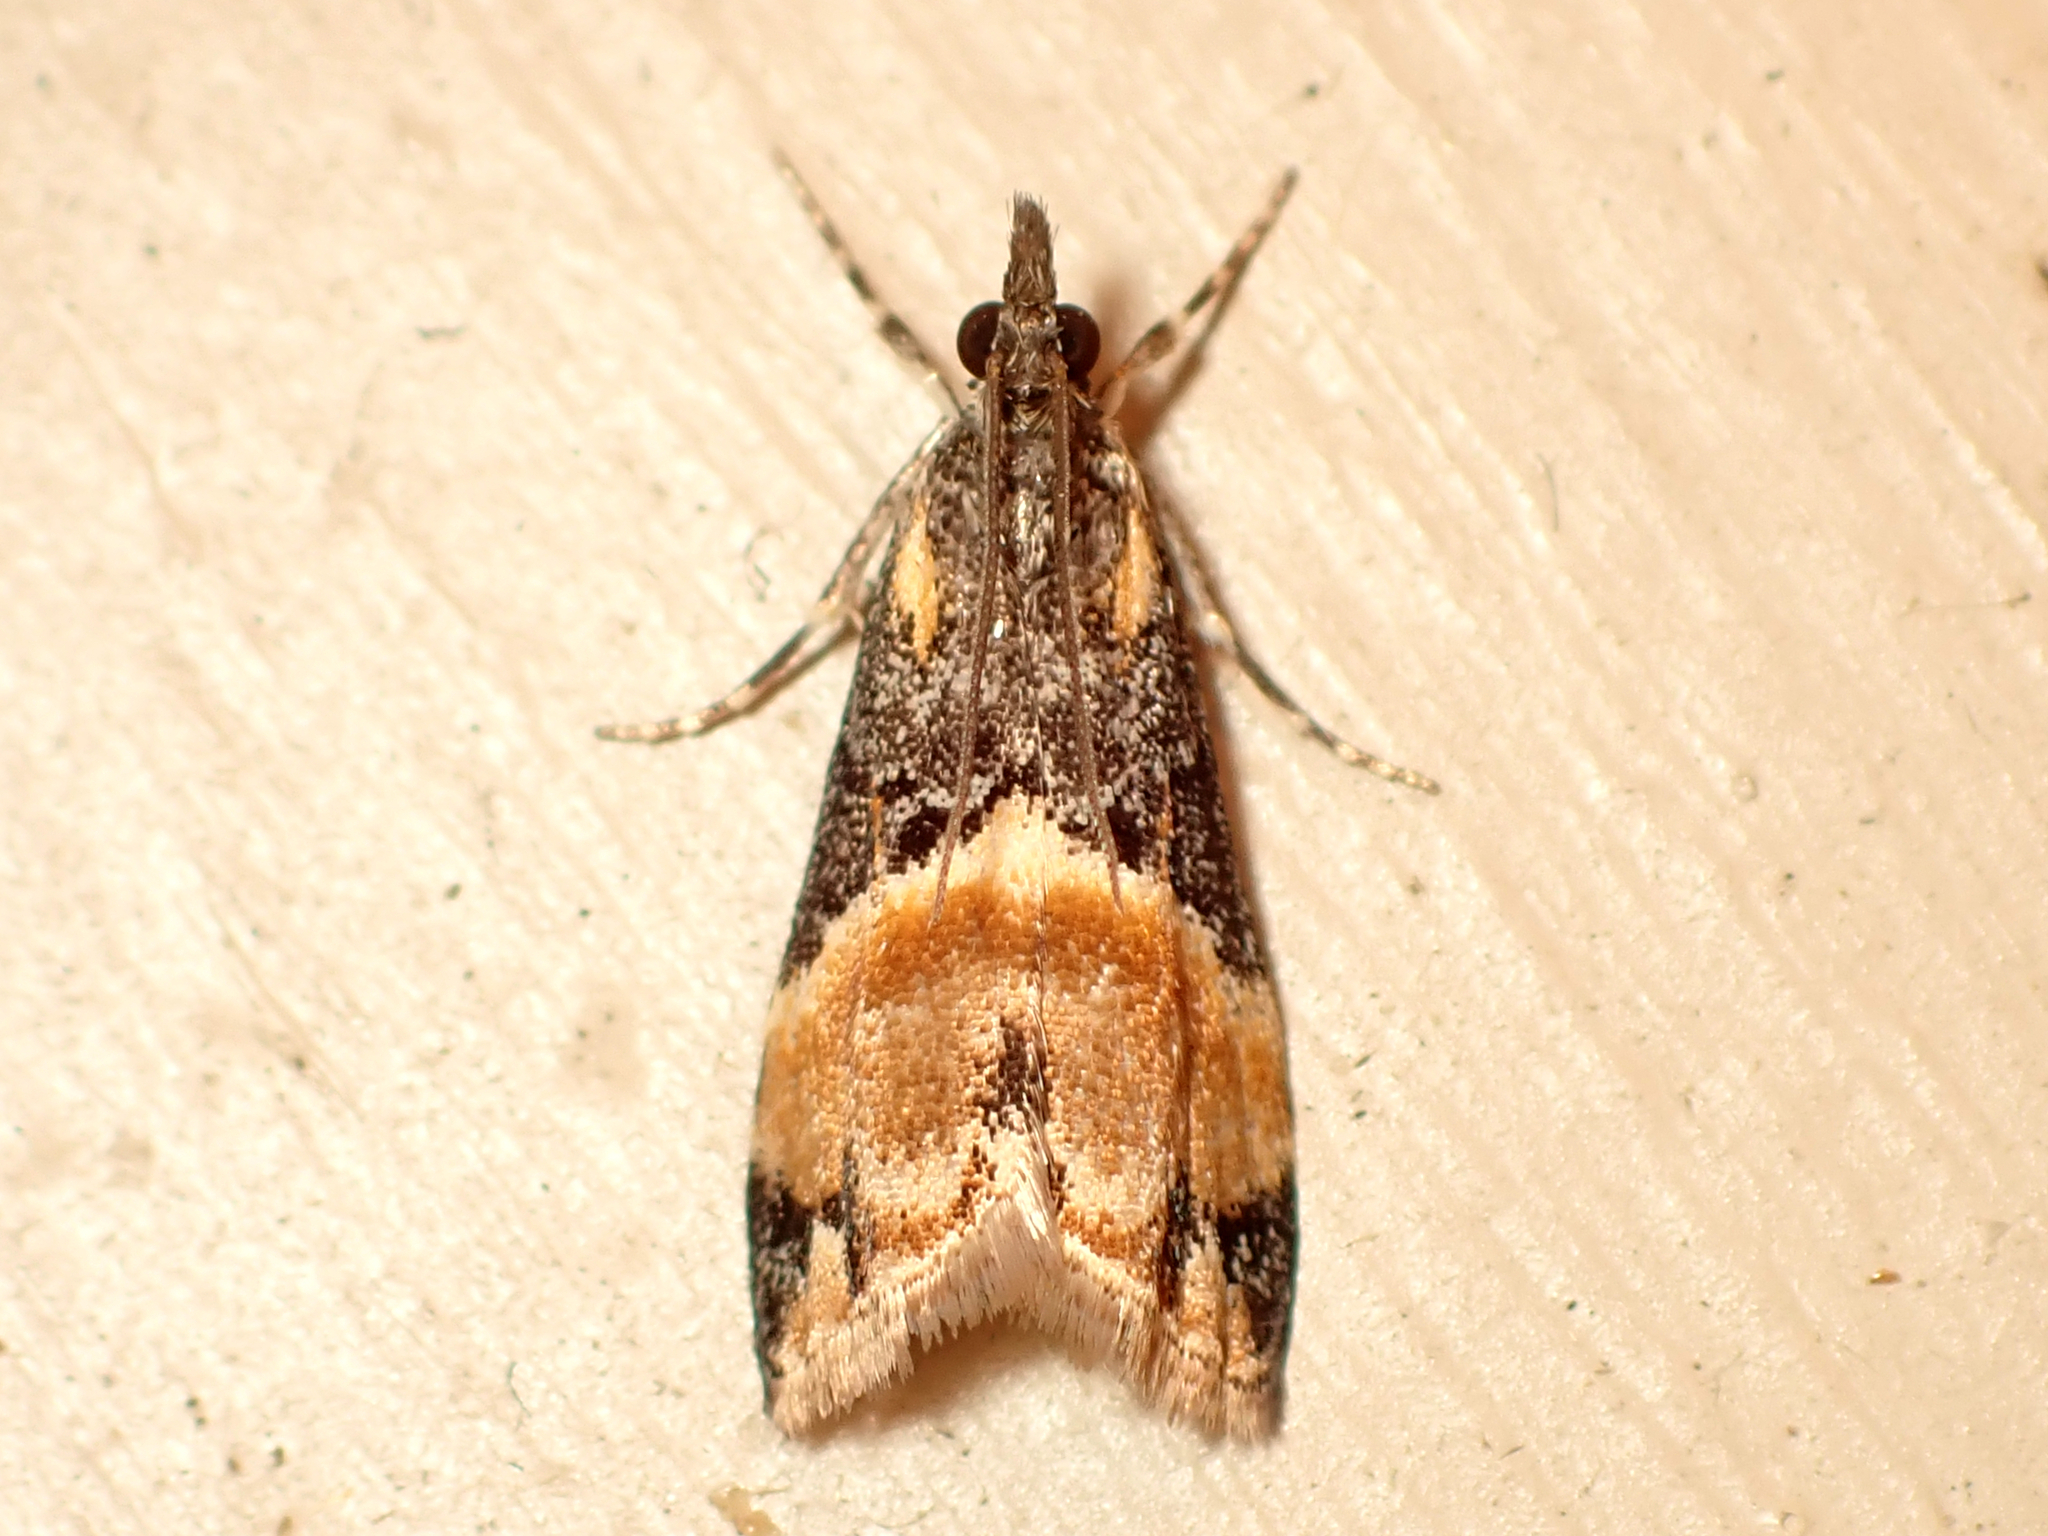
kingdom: Animalia
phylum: Arthropoda
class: Insecta
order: Lepidoptera
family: Crambidae
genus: Eudonia
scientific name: Eudonia chlamydota
